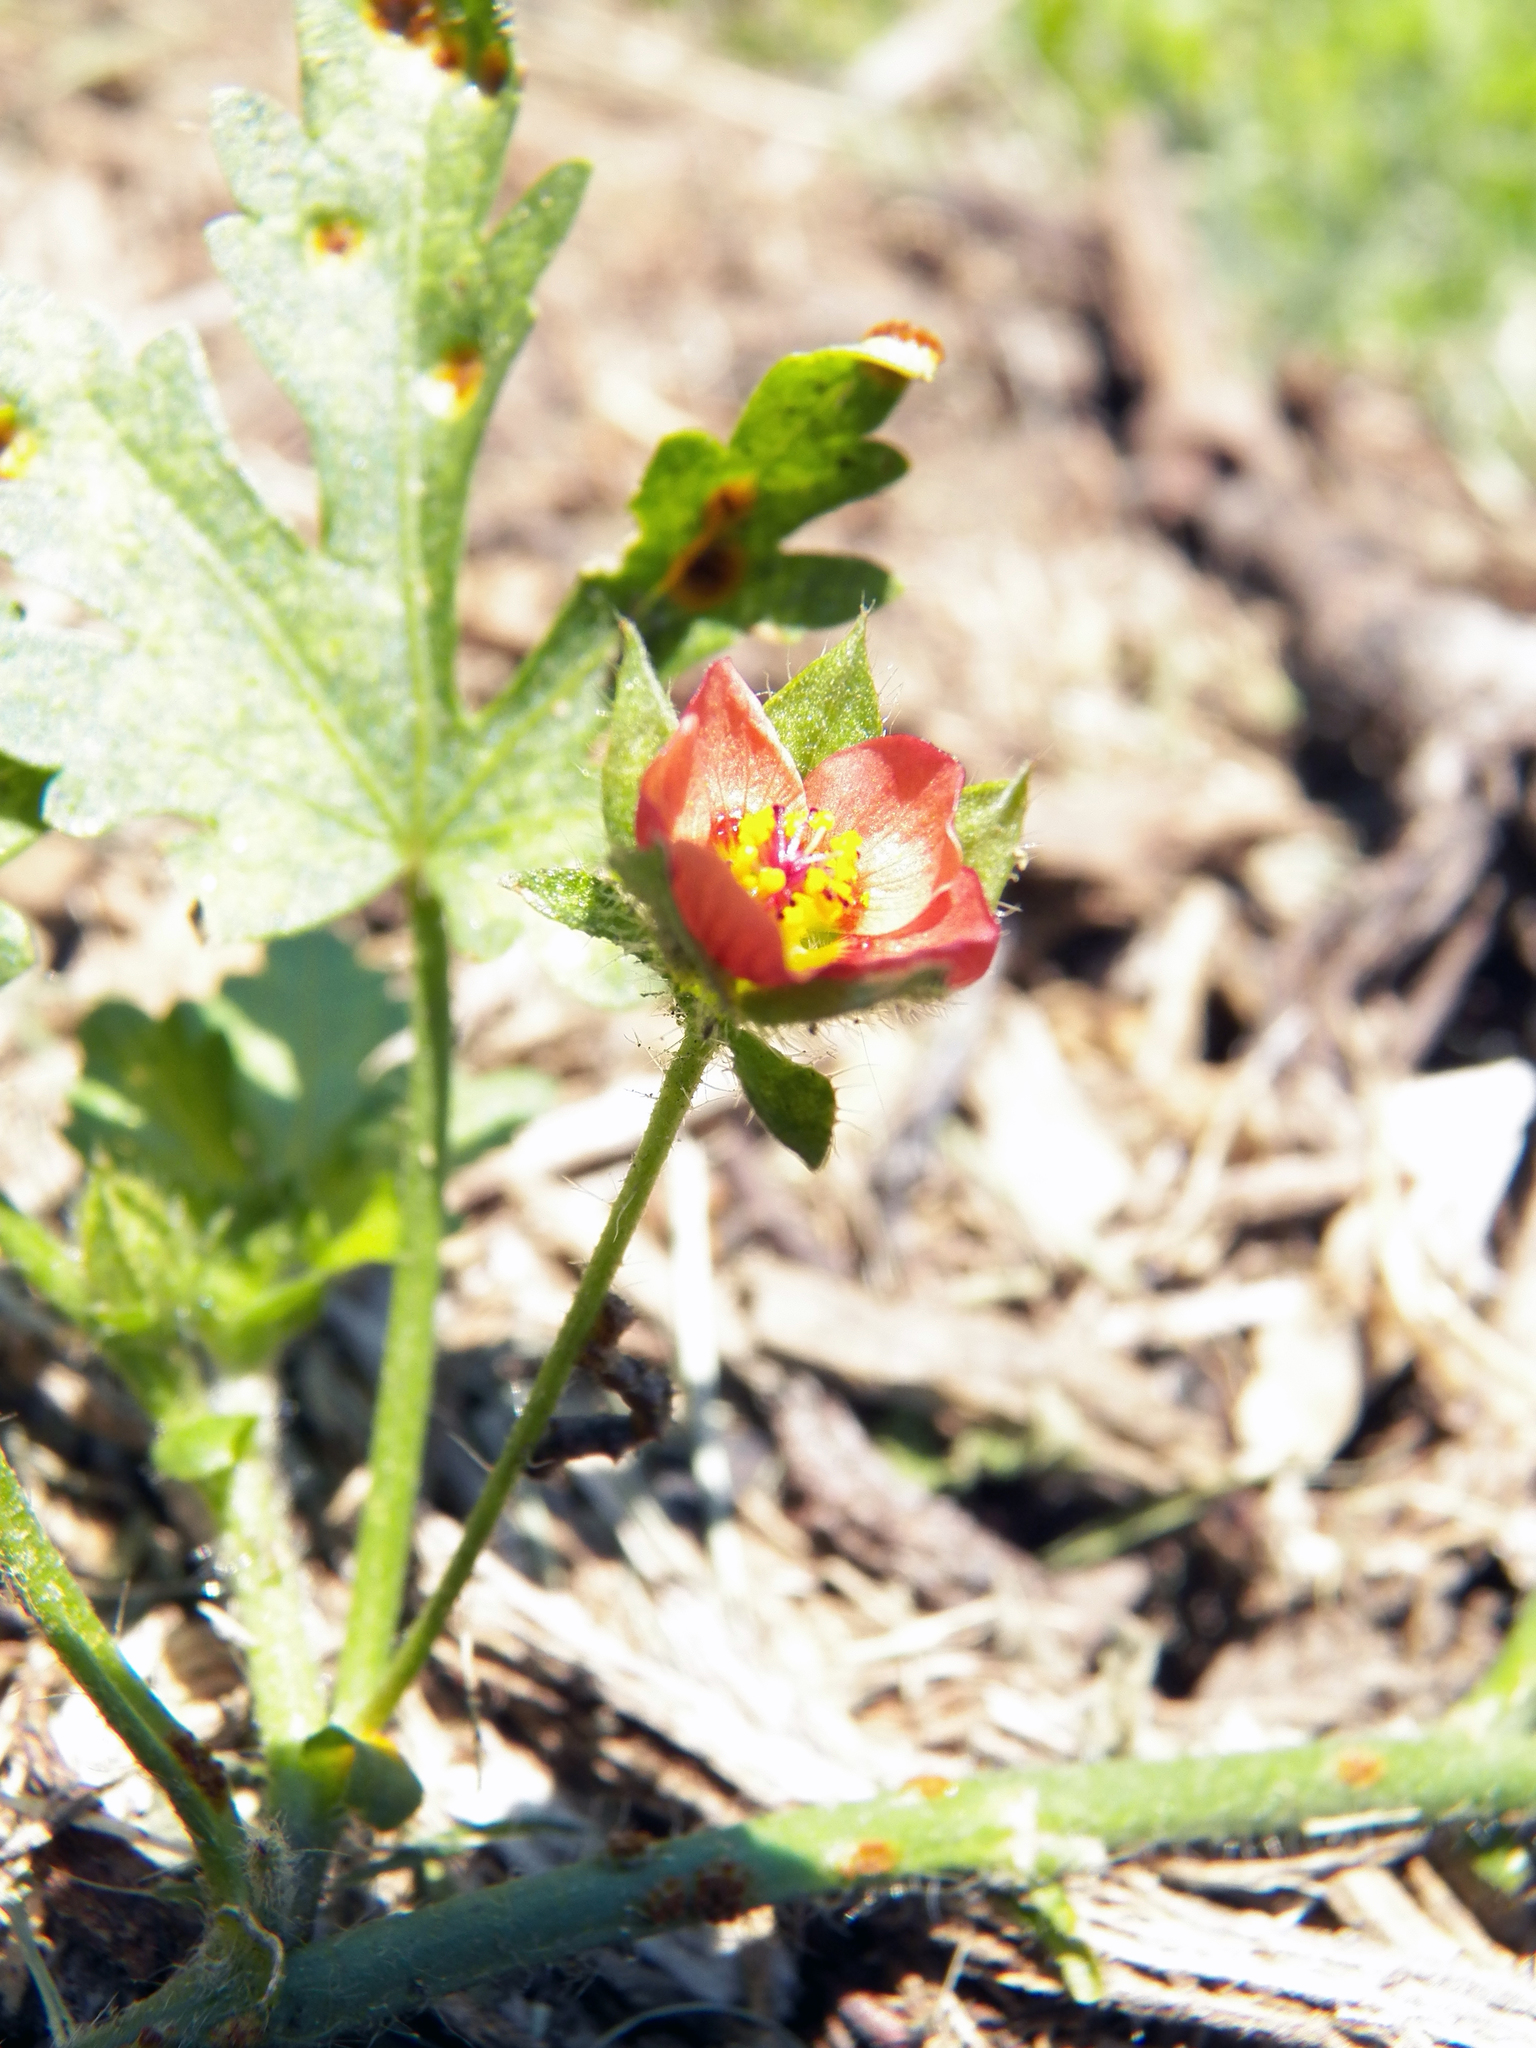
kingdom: Plantae
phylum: Tracheophyta
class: Magnoliopsida
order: Malvales
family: Malvaceae
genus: Modiola
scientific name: Modiola caroliniana
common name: Carolina bristlemallow
